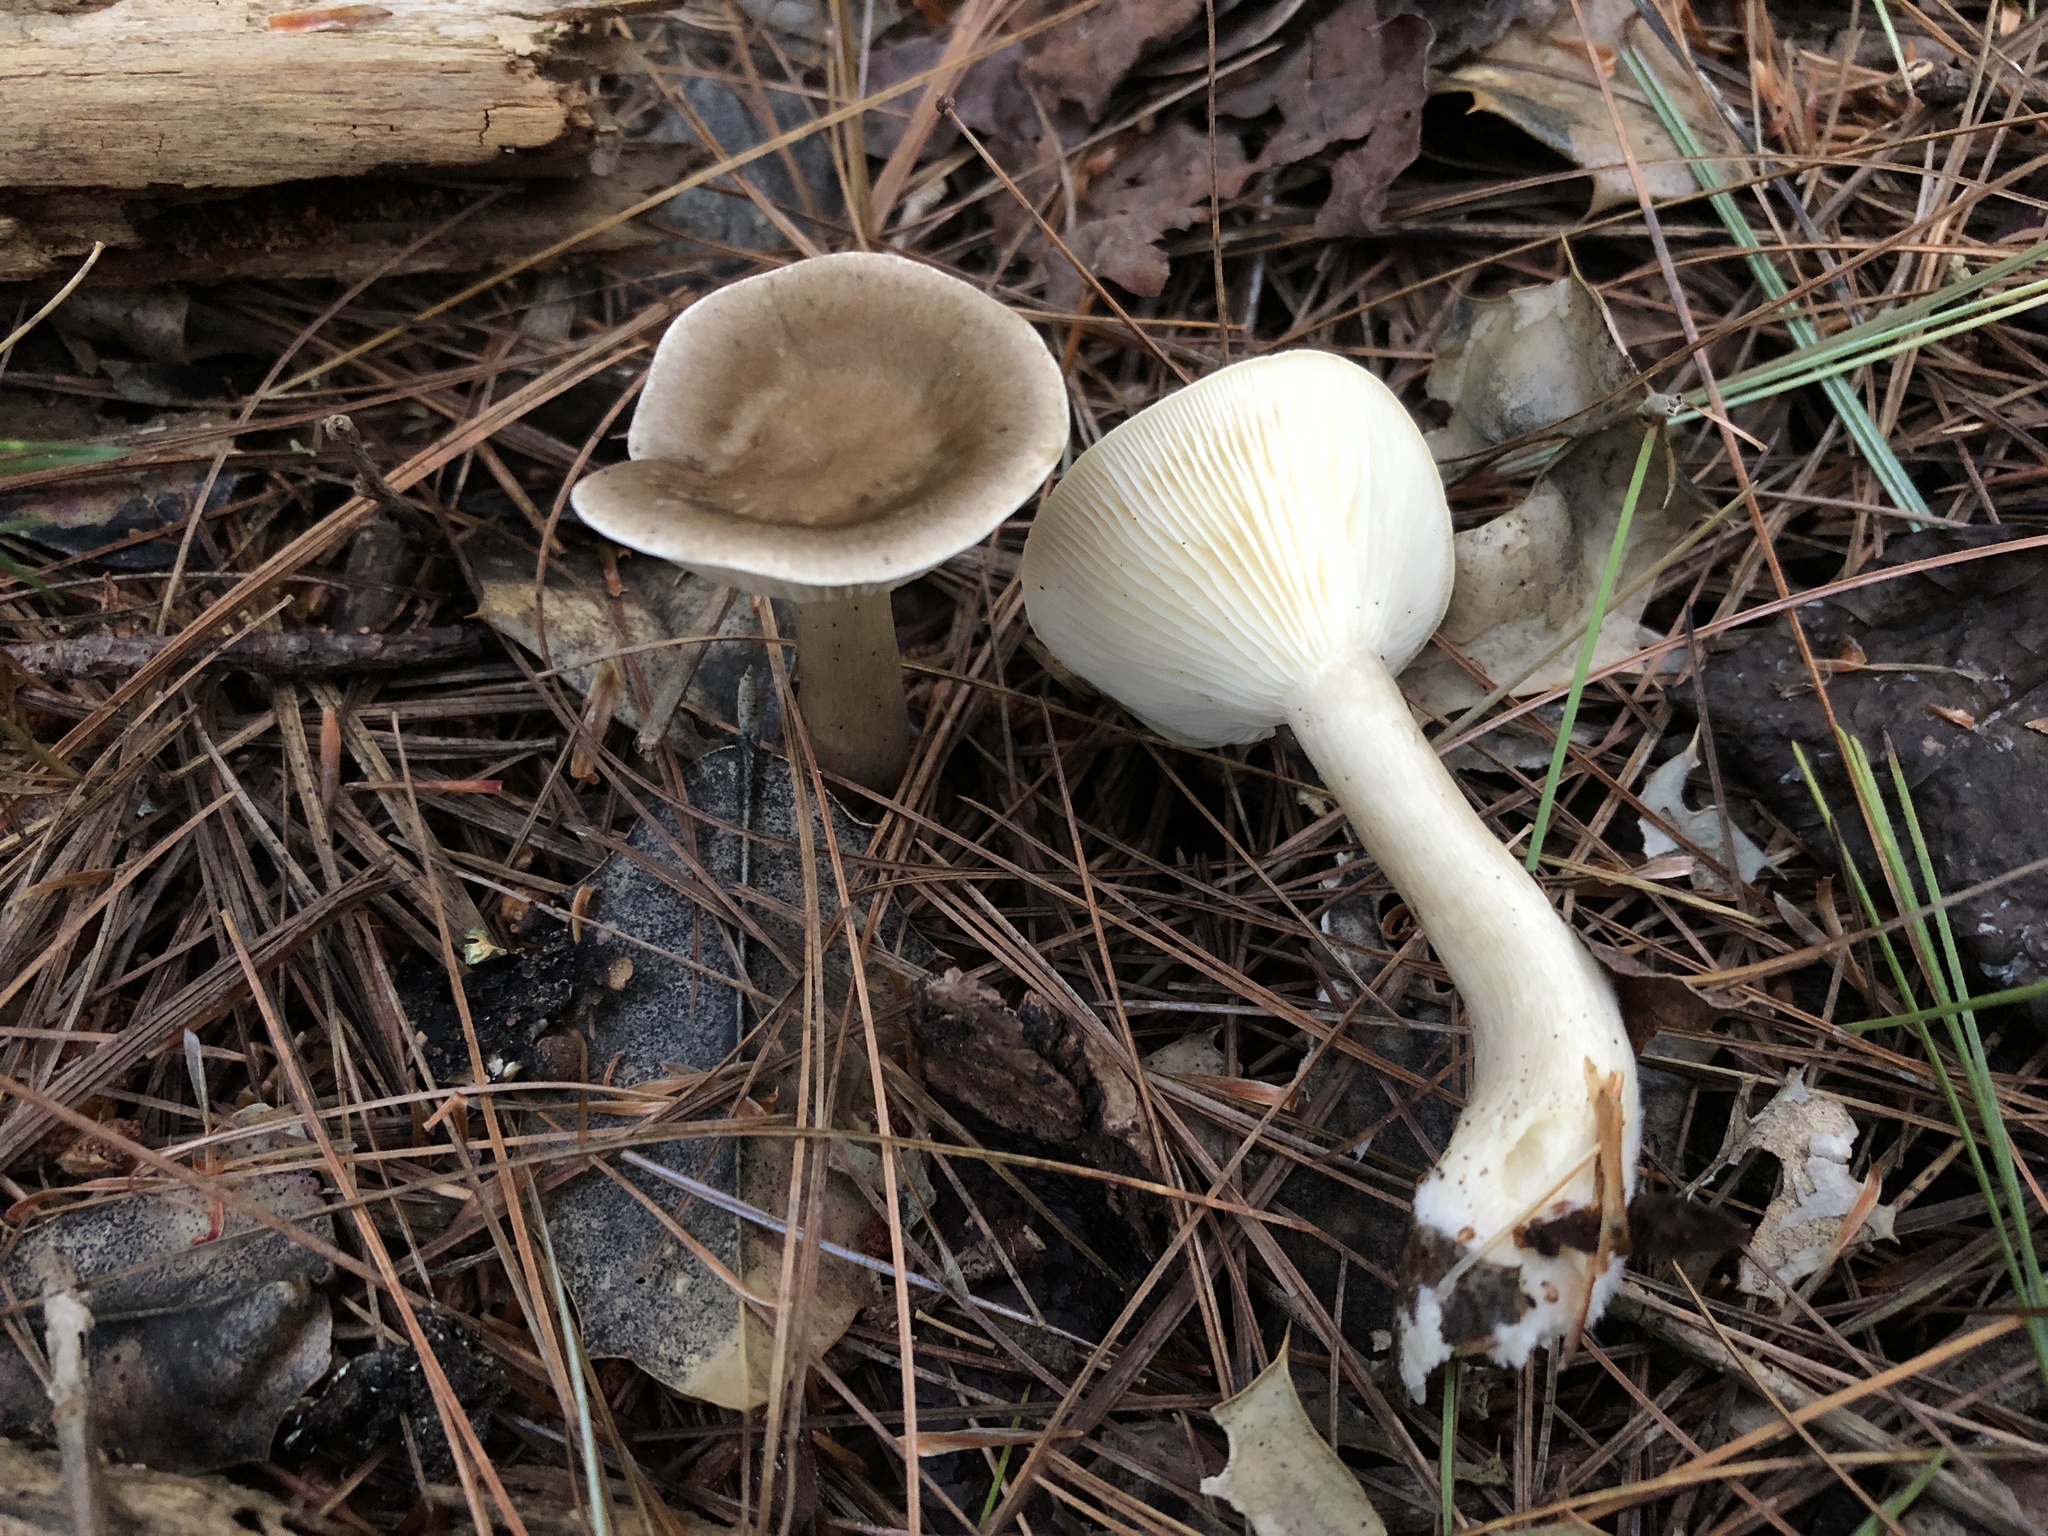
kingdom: Fungi
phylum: Basidiomycota
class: Agaricomycetes
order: Agaricales
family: Hygrophoraceae
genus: Ampulloclitocybe
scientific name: Ampulloclitocybe clavipes
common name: Club foot
